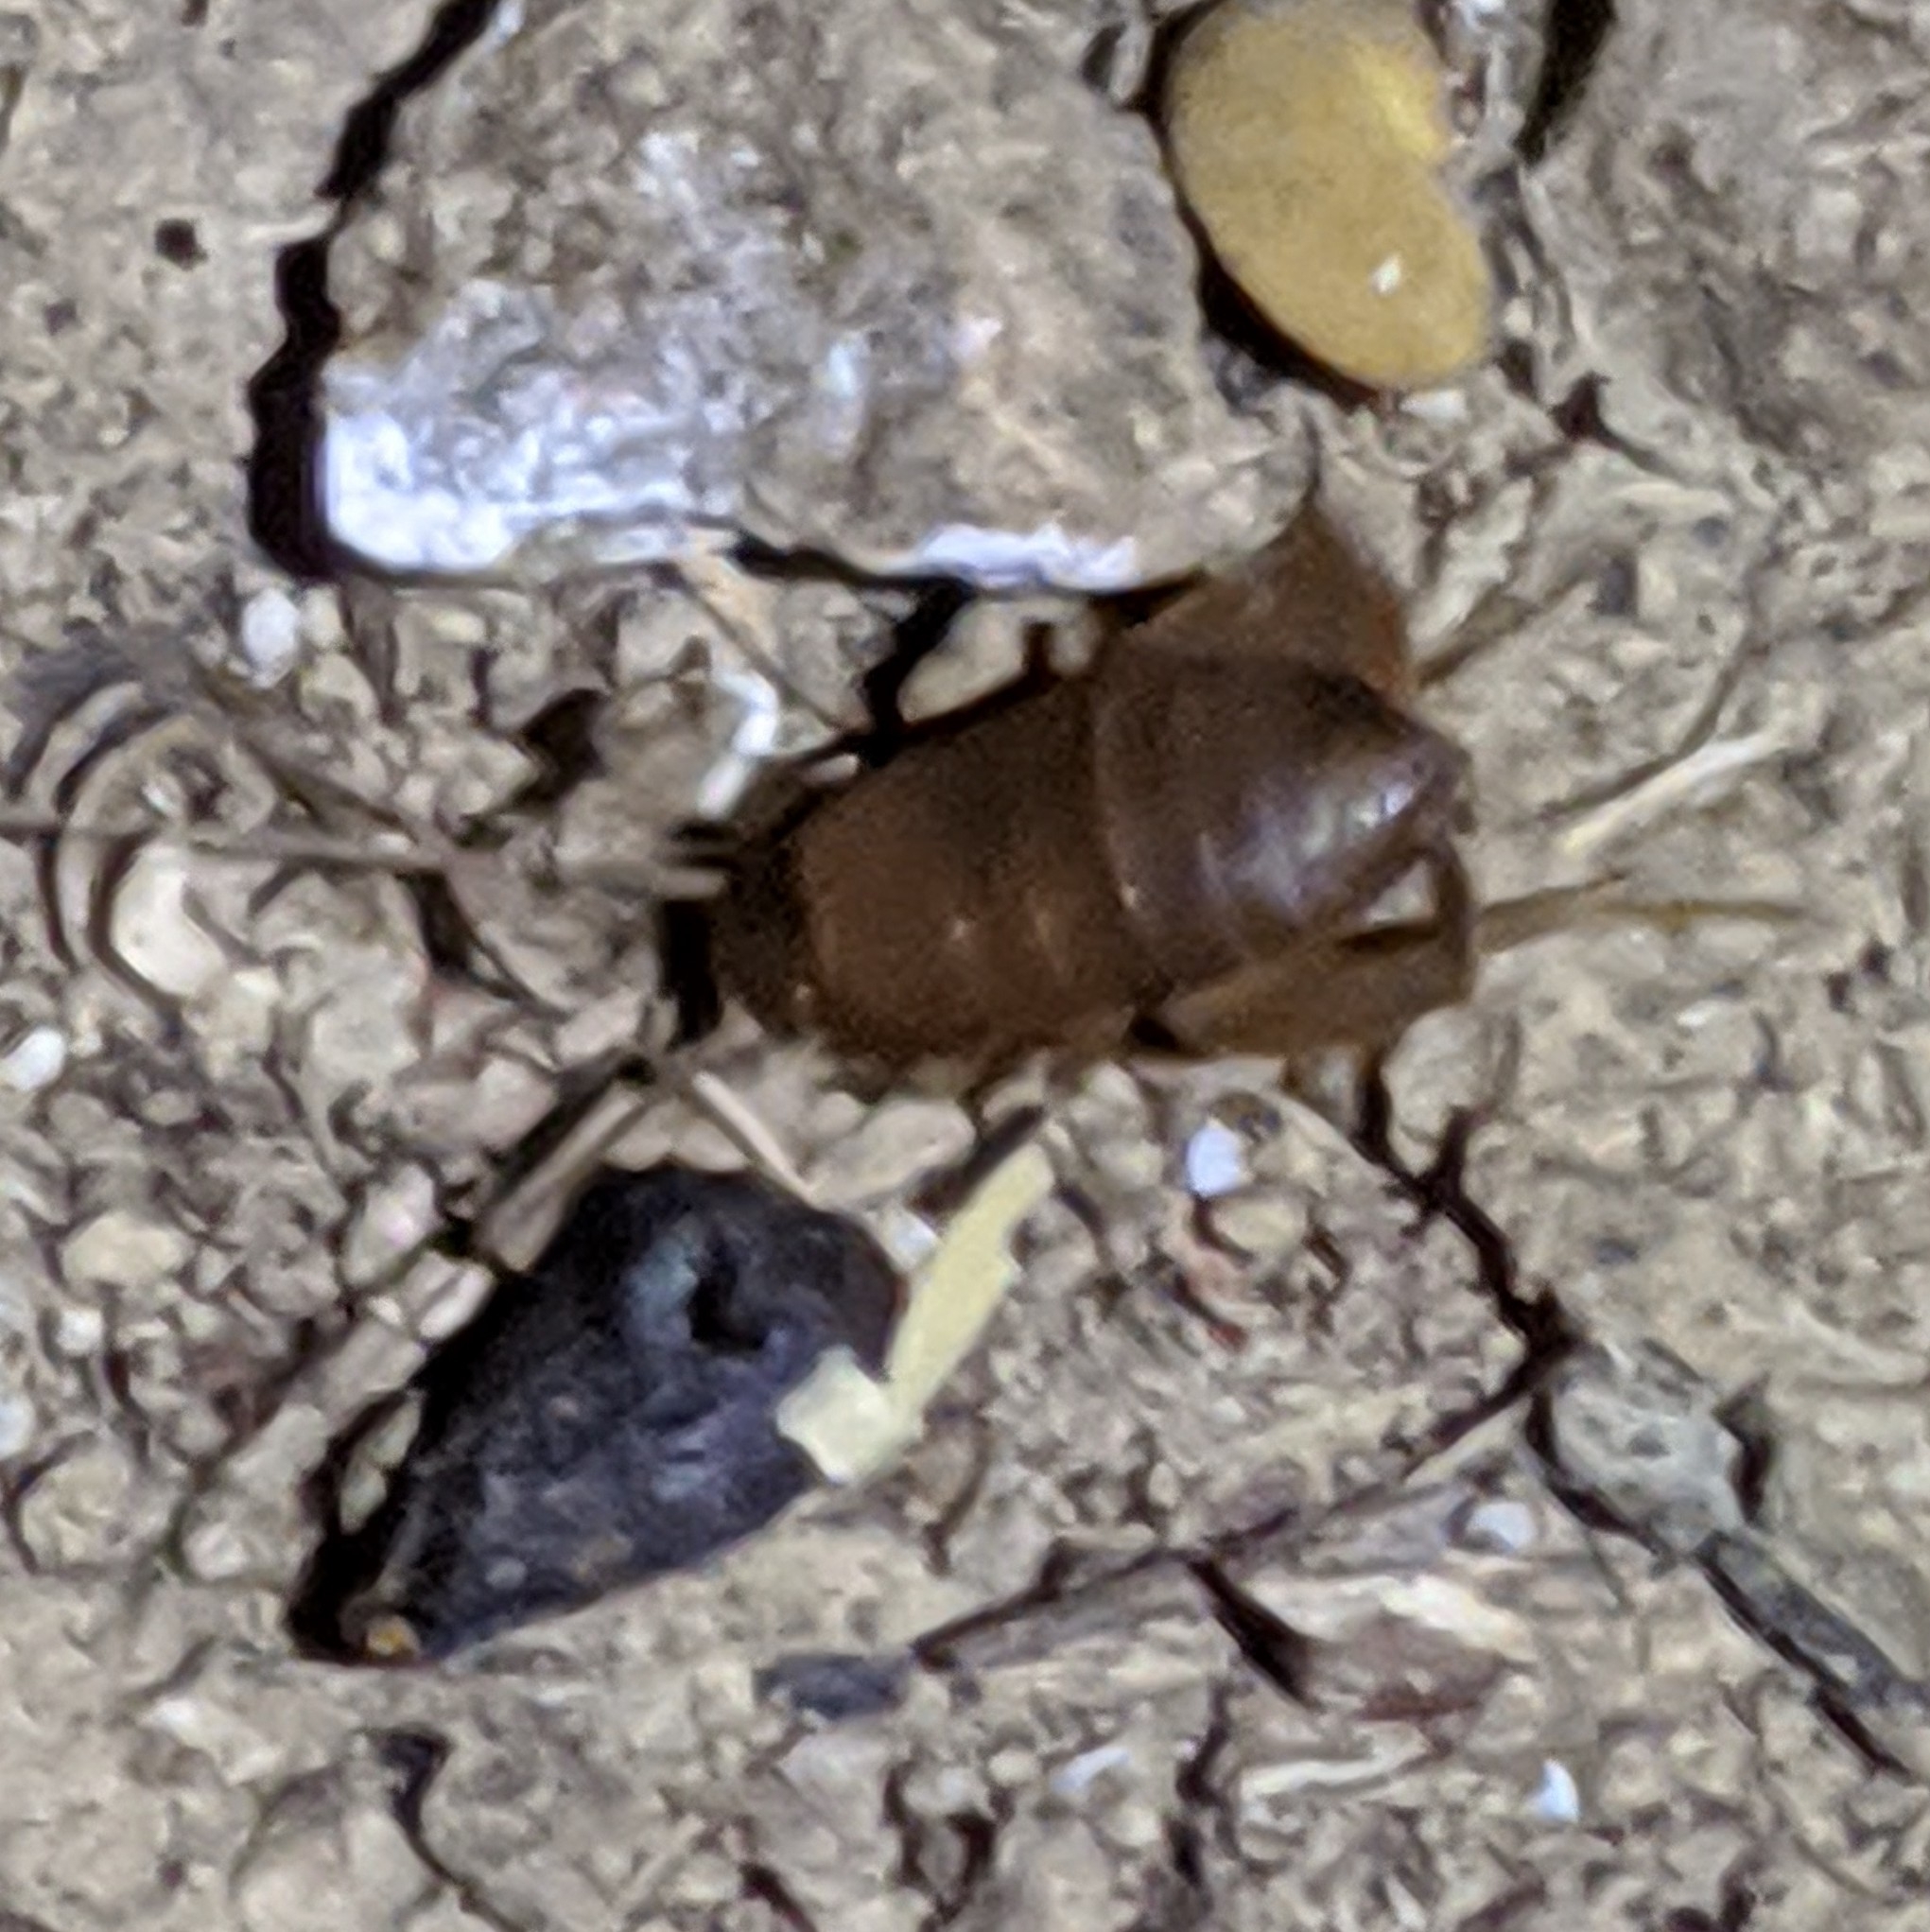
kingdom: Animalia
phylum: Arthropoda
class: Insecta
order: Orthoptera
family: Myrmecophilidae
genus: Myrmecophilus
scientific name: Myrmecophilus oregonensis
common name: Oregon ant cricket
